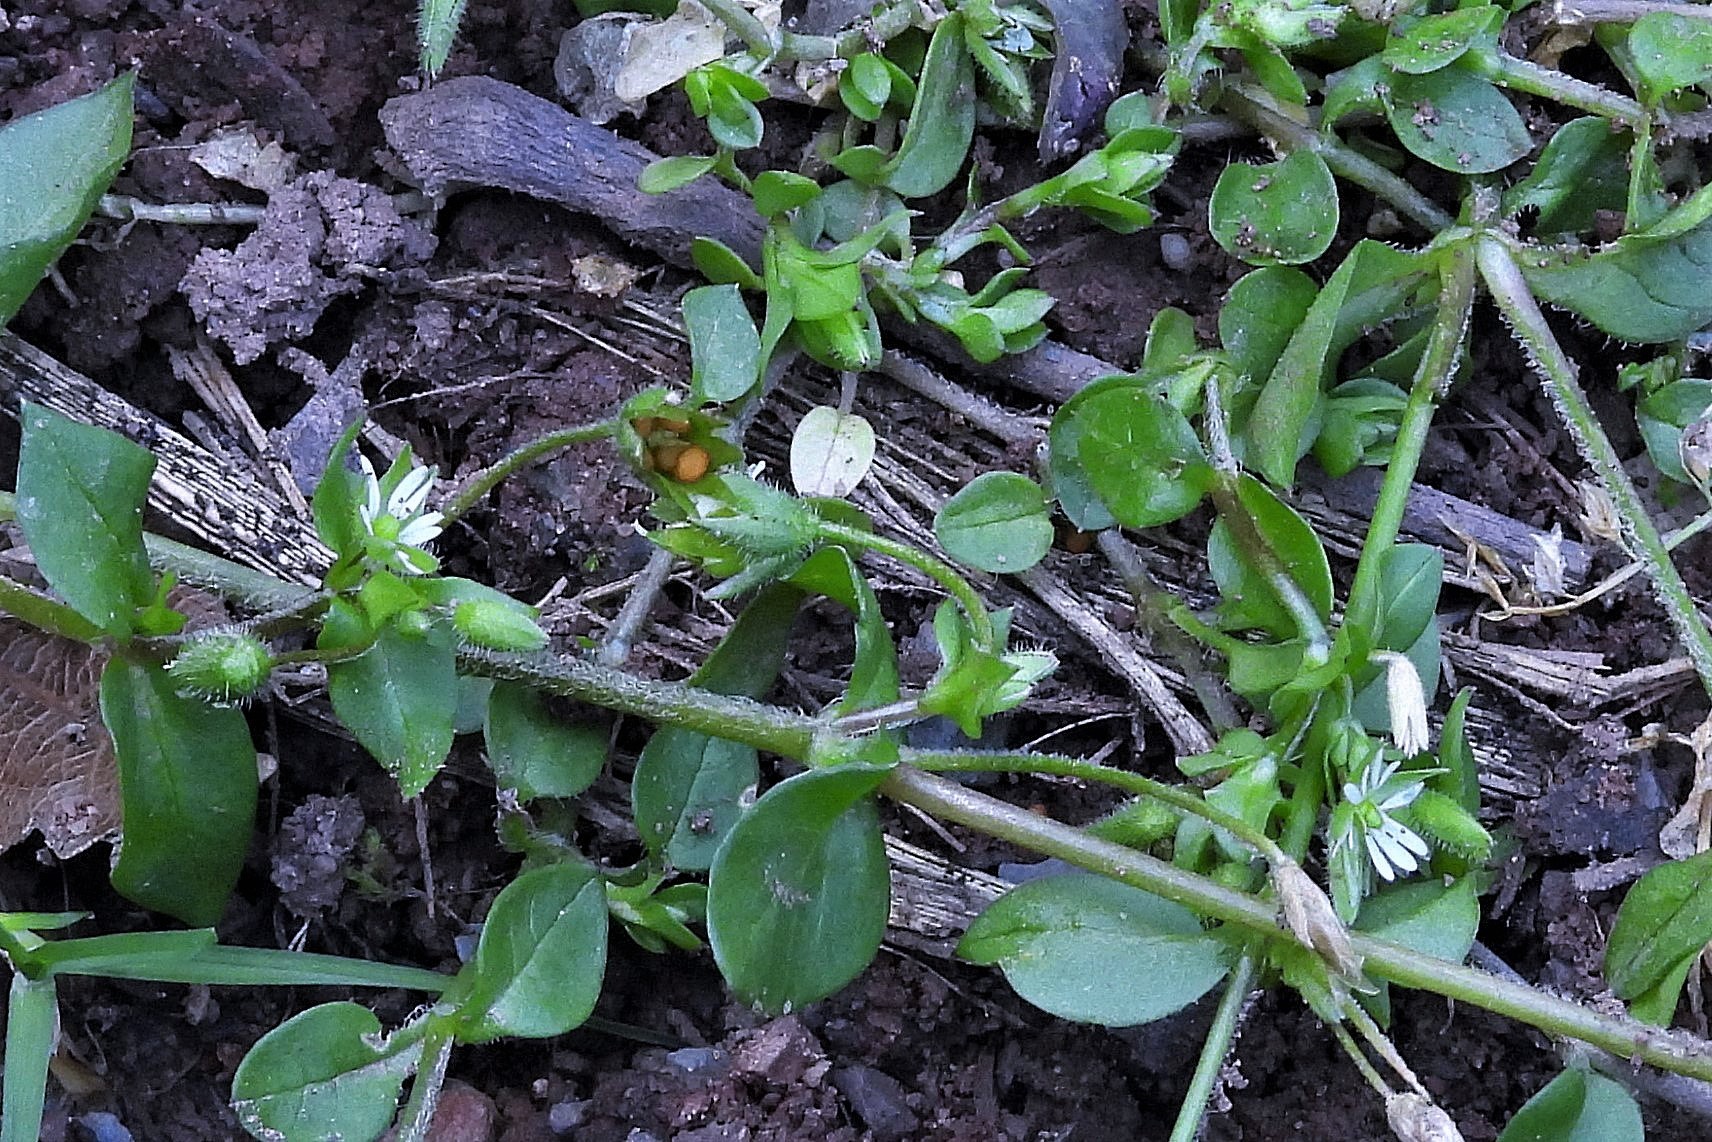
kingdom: Plantae
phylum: Tracheophyta
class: Magnoliopsida
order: Caryophyllales
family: Caryophyllaceae
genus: Stellaria
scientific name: Stellaria media
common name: Common chickweed
